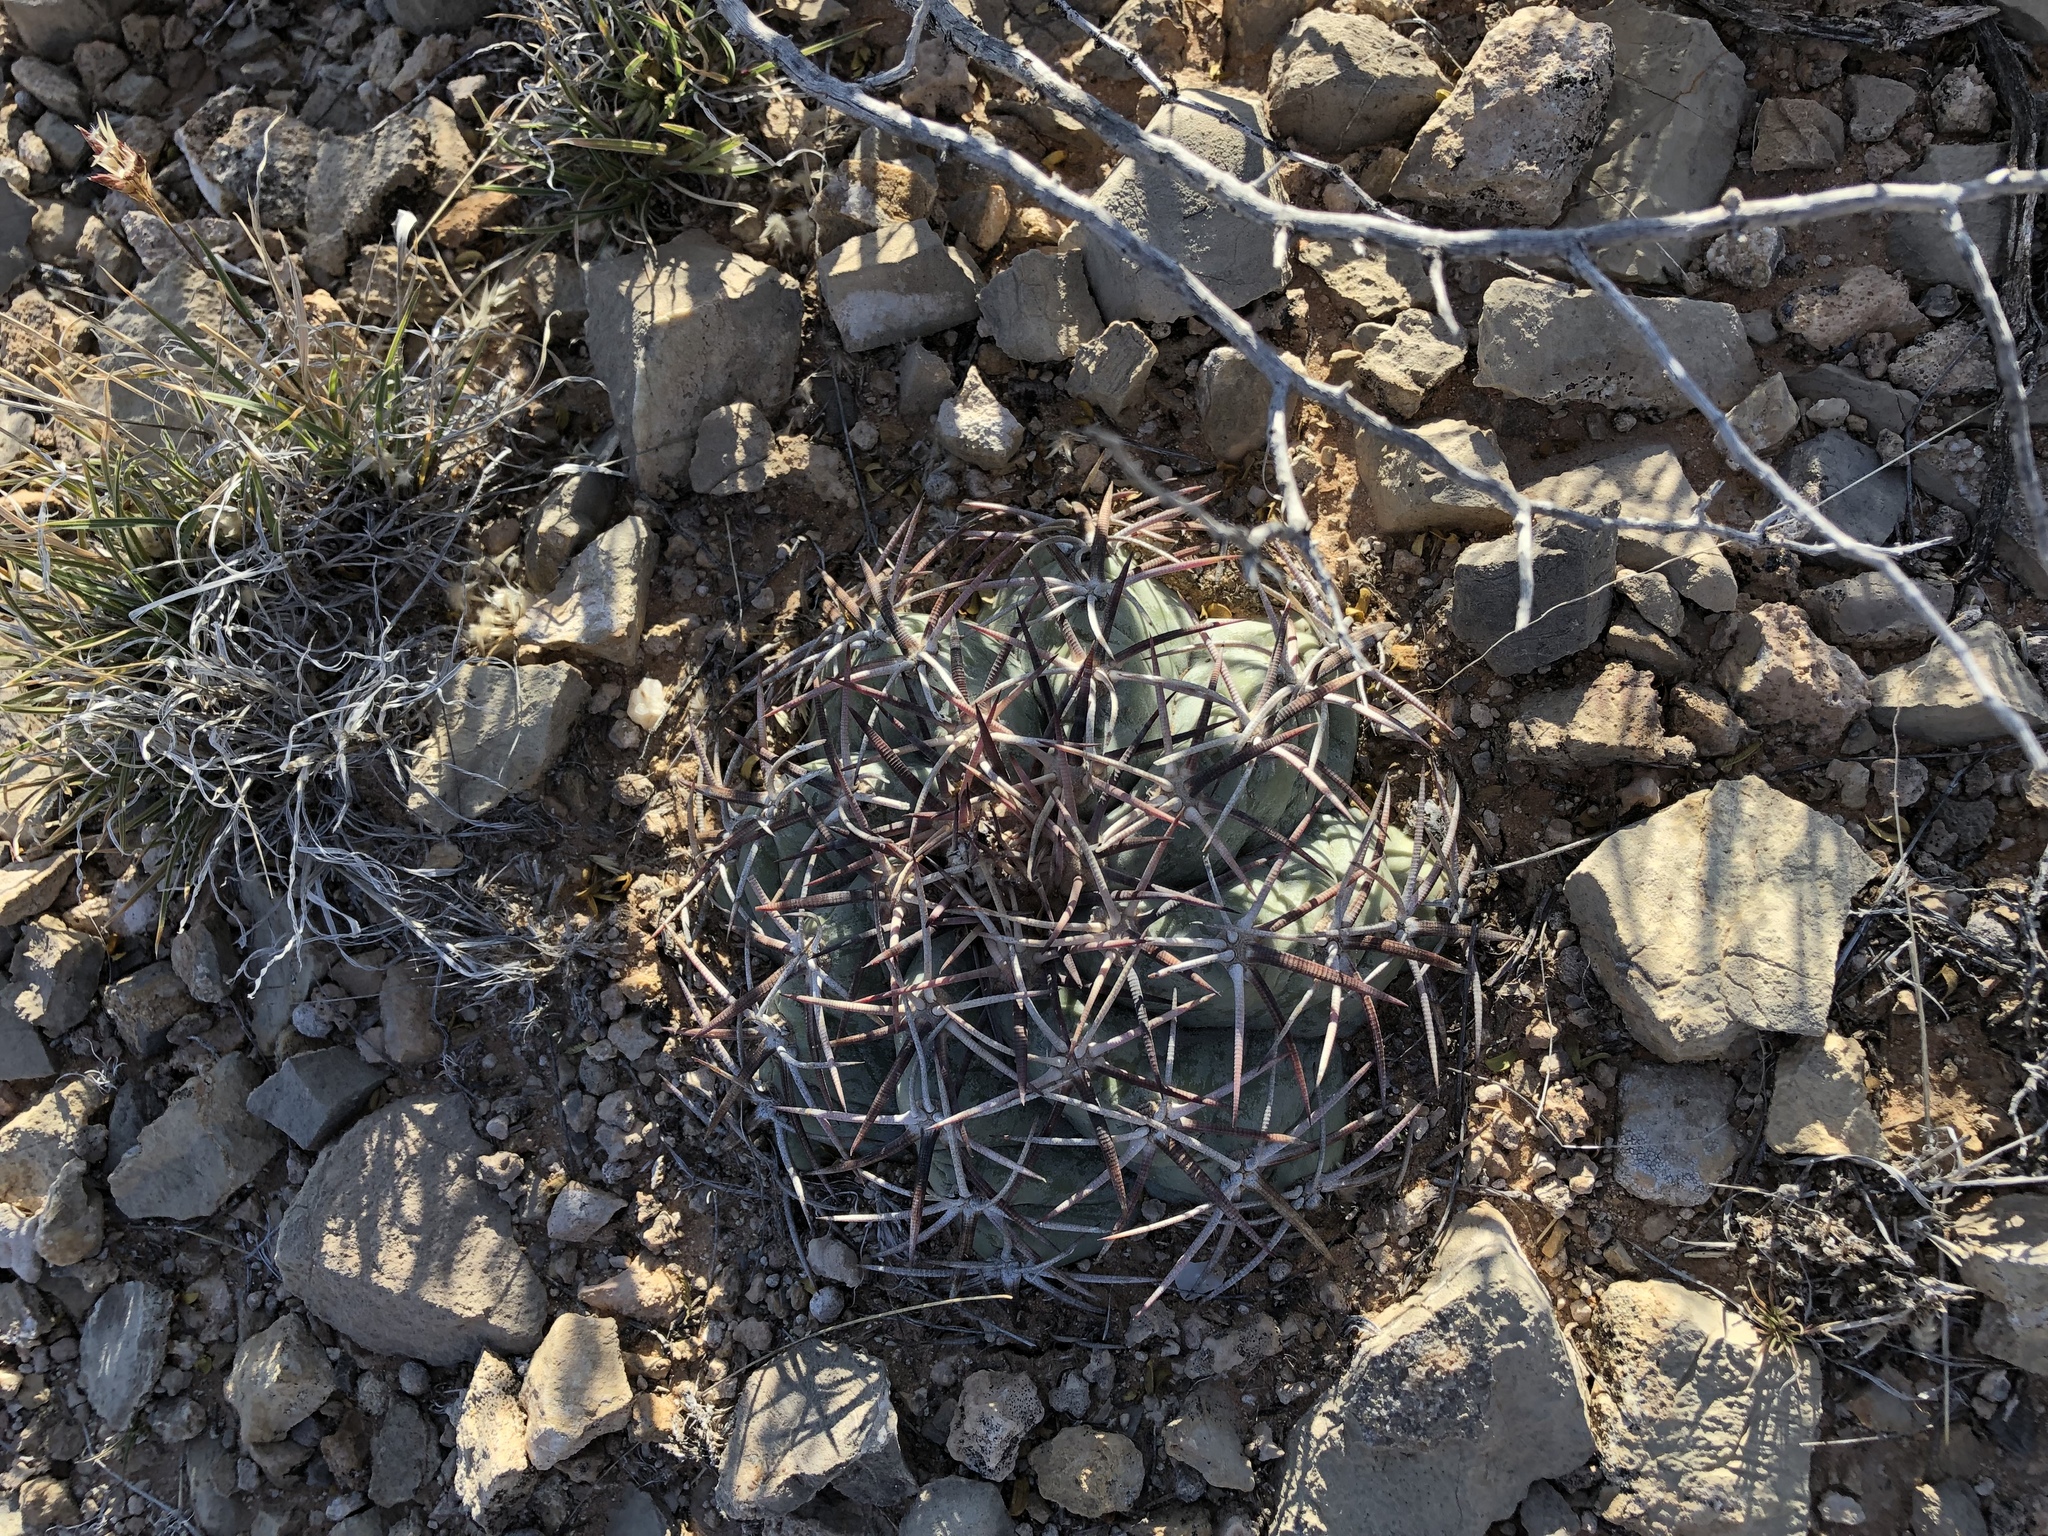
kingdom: Plantae
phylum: Tracheophyta
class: Magnoliopsida
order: Caryophyllales
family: Cactaceae
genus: Echinocactus
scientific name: Echinocactus horizonthalonius
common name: Devilshead
